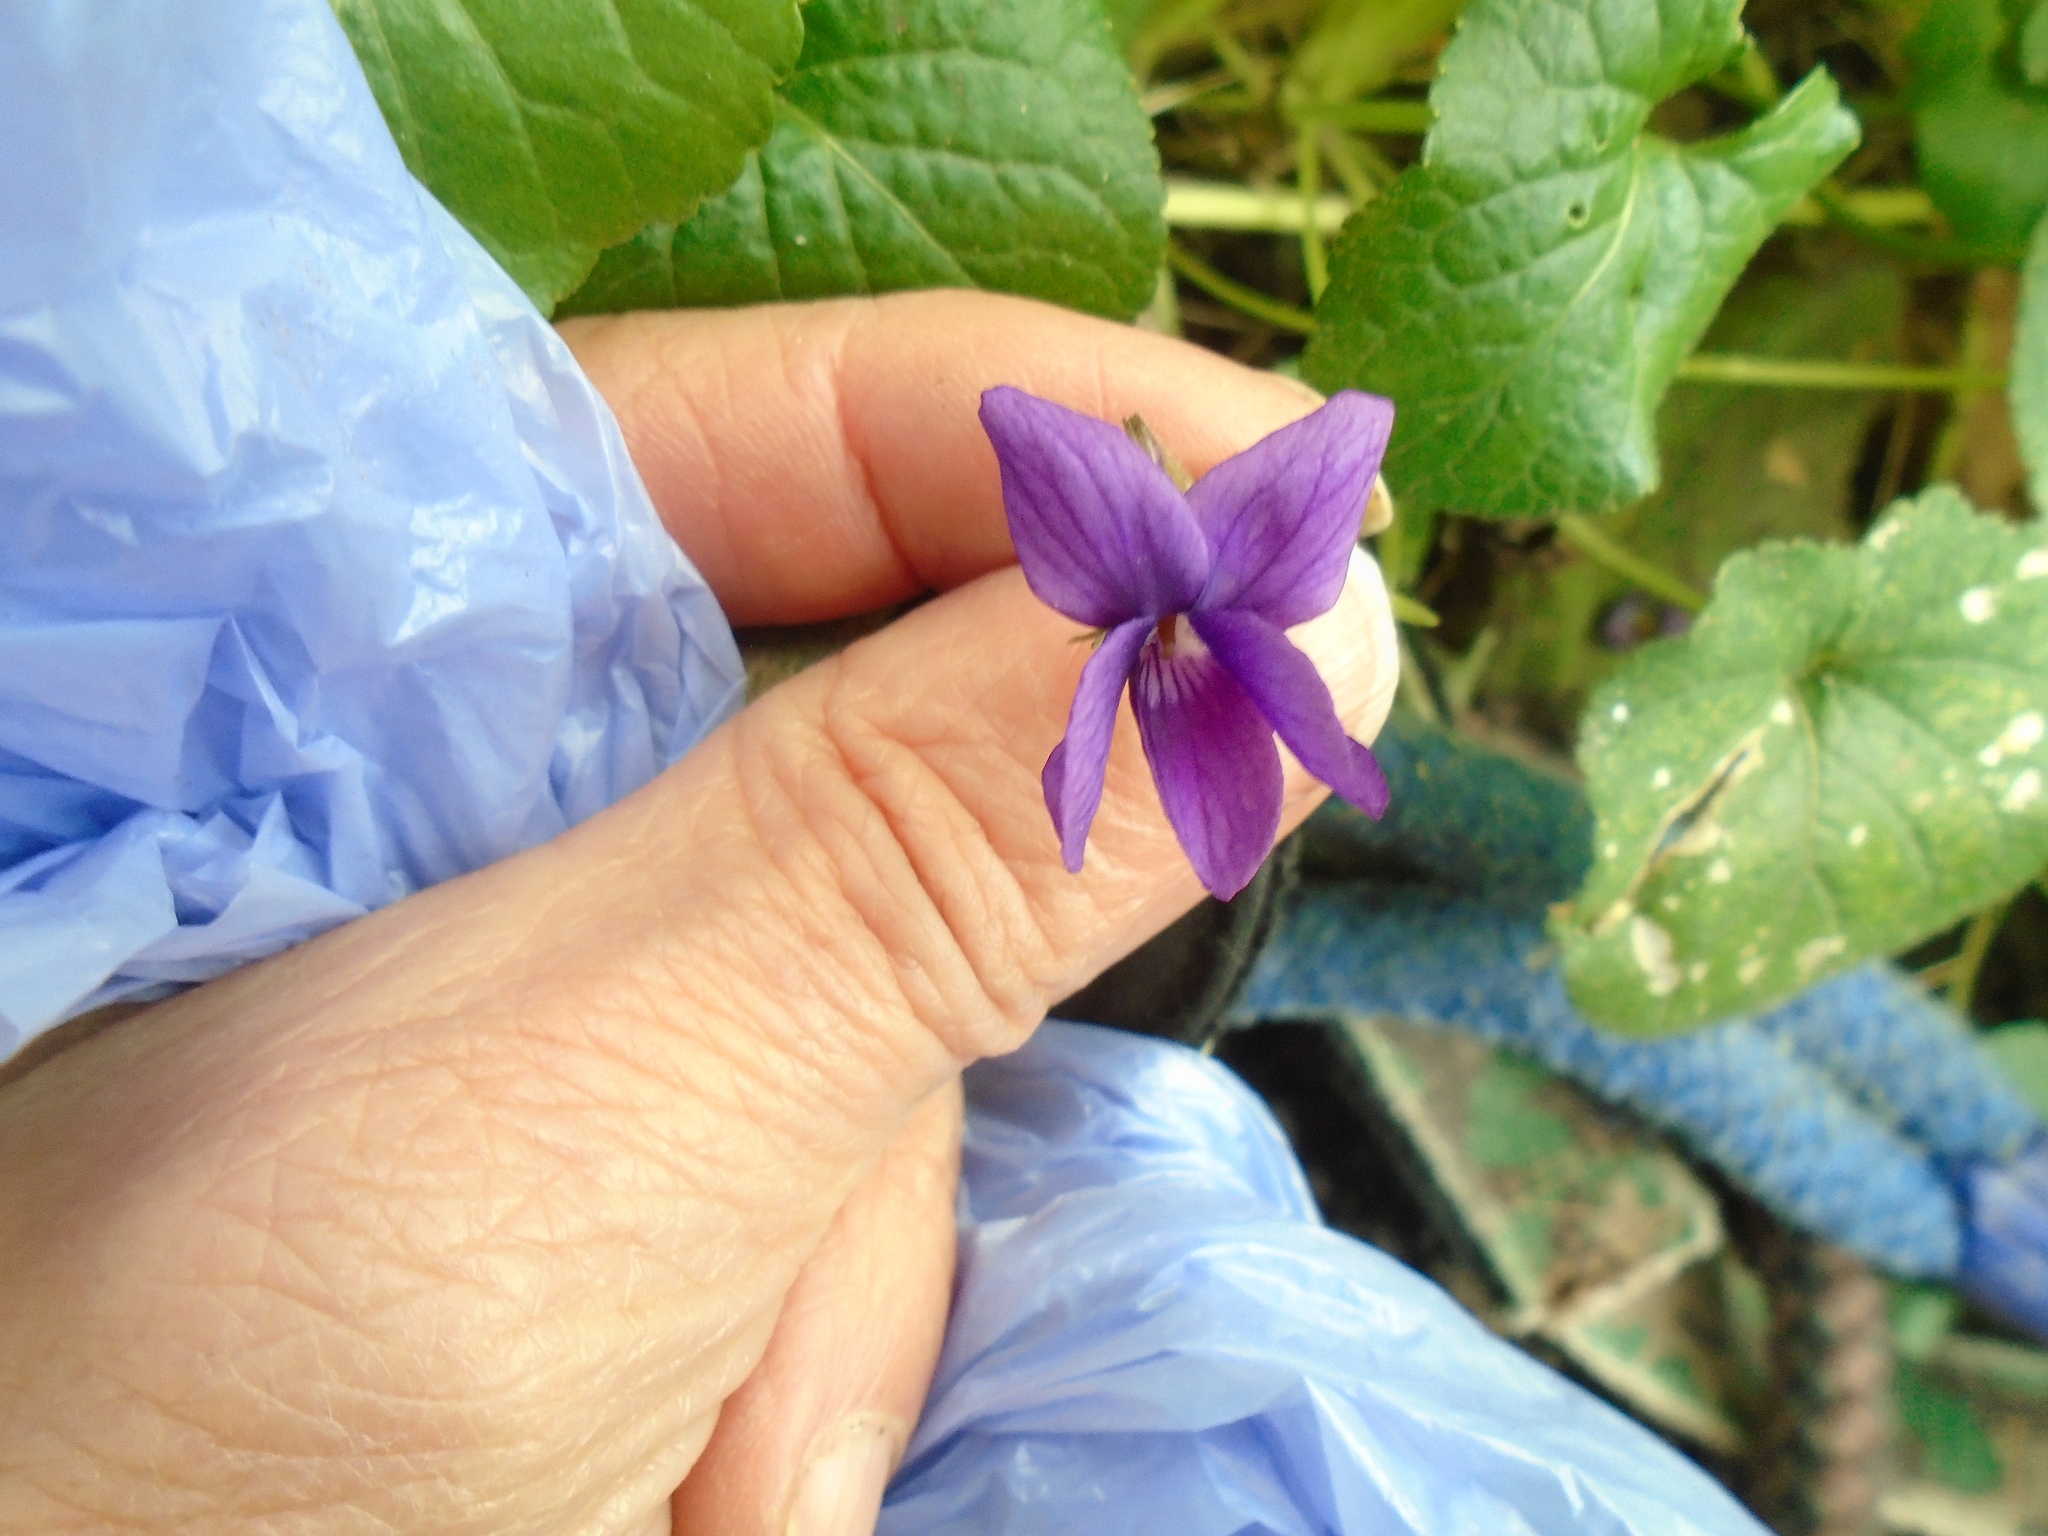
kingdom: Plantae
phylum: Tracheophyta
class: Magnoliopsida
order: Malpighiales
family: Violaceae
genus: Viola
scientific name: Viola odorata
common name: Sweet violet
